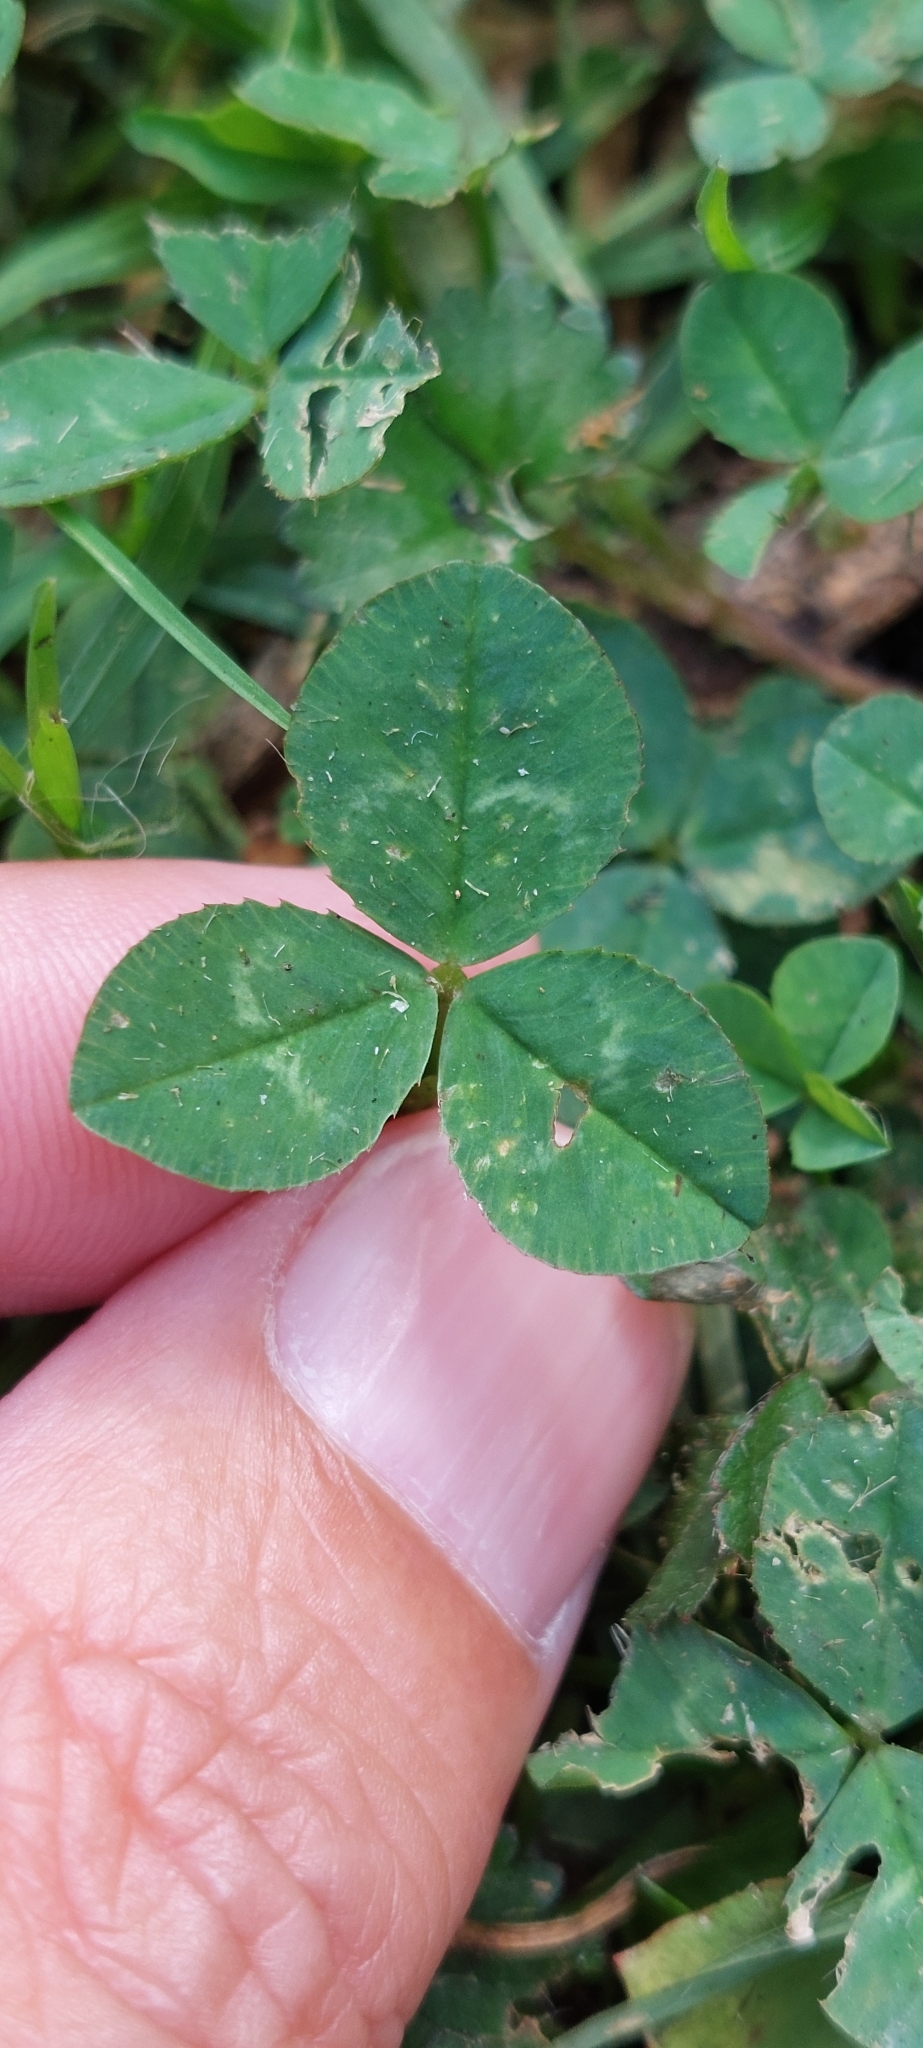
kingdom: Plantae
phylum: Tracheophyta
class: Magnoliopsida
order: Fabales
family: Fabaceae
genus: Trifolium
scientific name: Trifolium repens
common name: White clover
